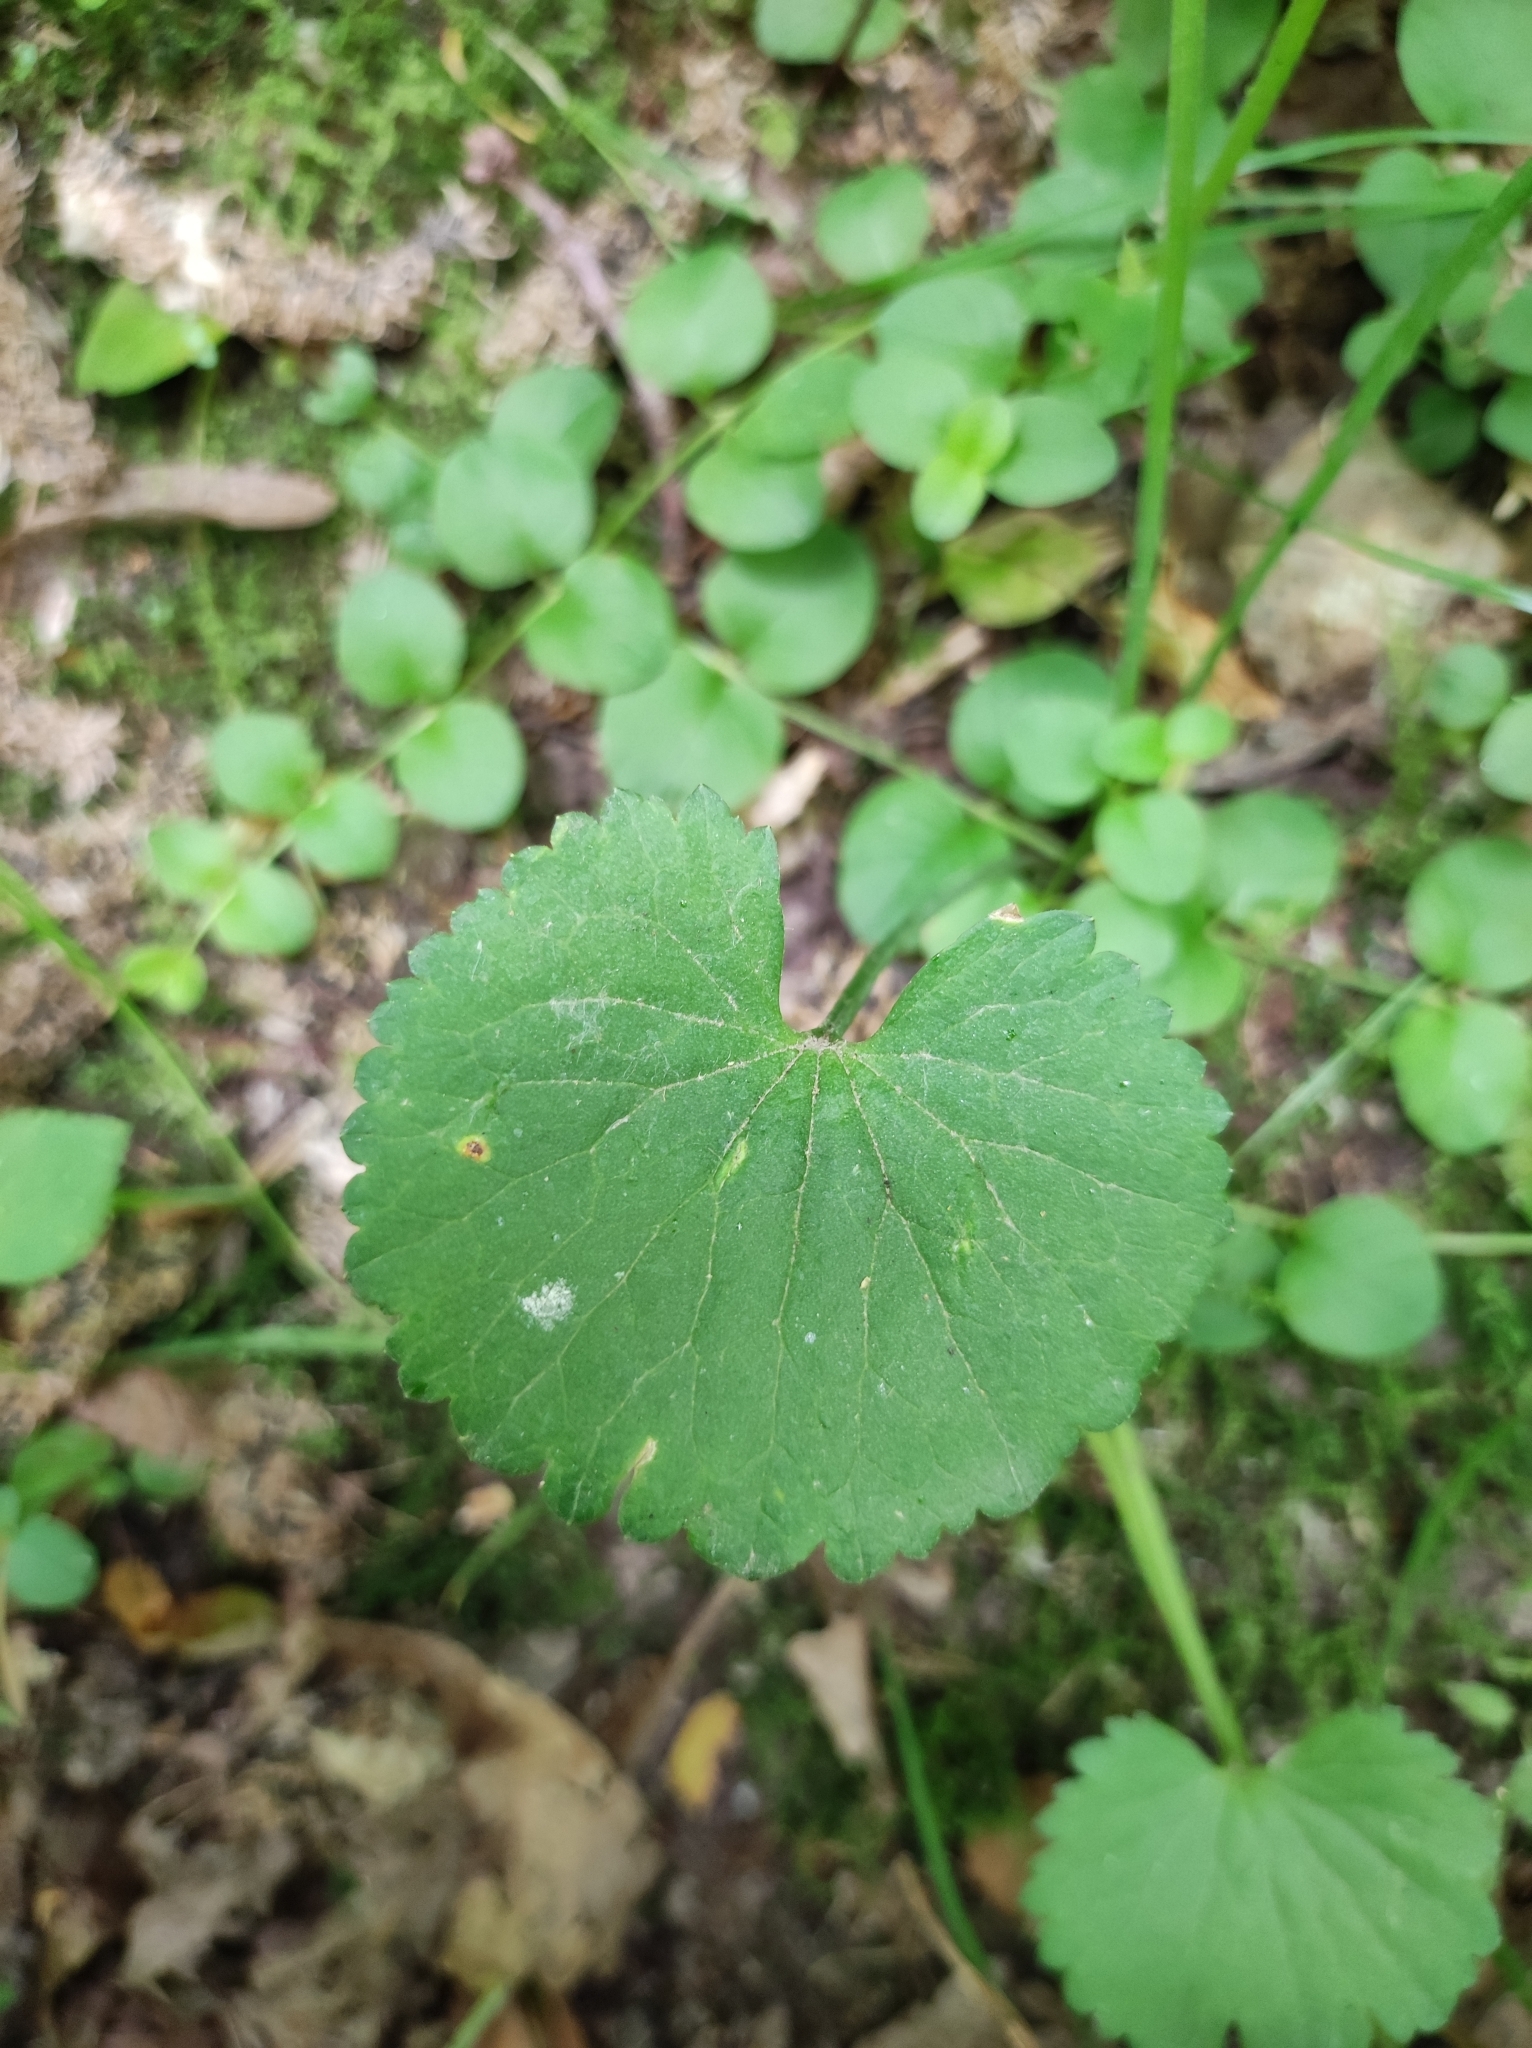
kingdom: Plantae
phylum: Tracheophyta
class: Magnoliopsida
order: Ranunculales
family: Ranunculaceae
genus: Ranunculus
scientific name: Ranunculus cassubicus
